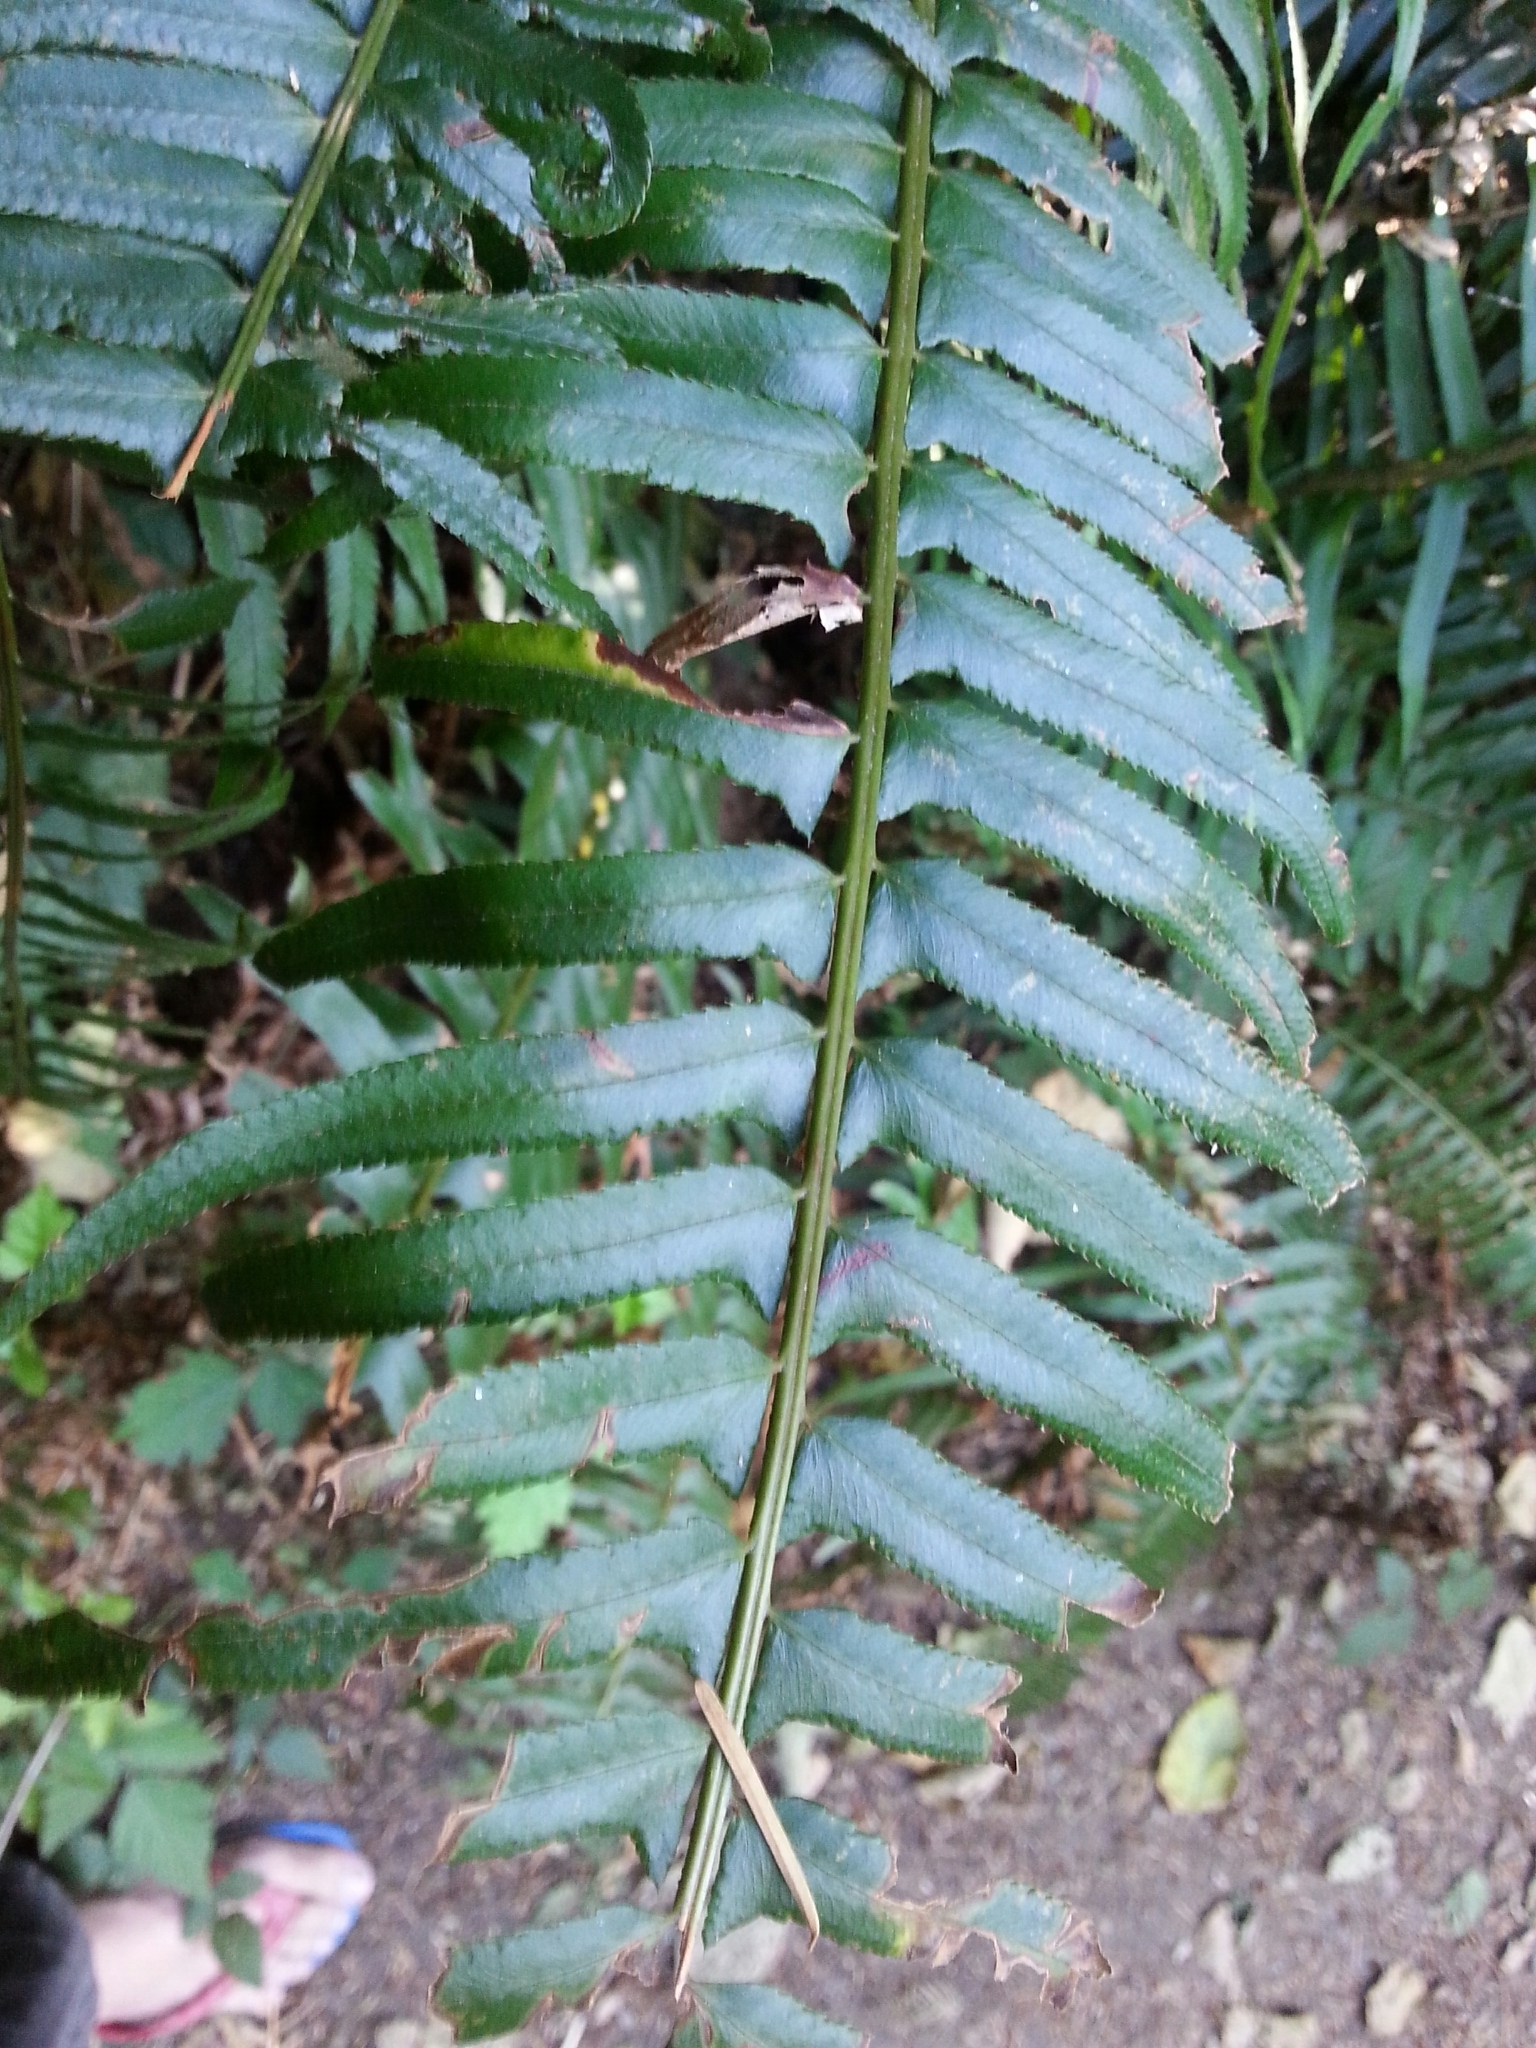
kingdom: Plantae
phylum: Tracheophyta
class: Polypodiopsida
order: Polypodiales
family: Dryopteridaceae
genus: Polystichum
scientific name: Polystichum munitum
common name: Western sword-fern
